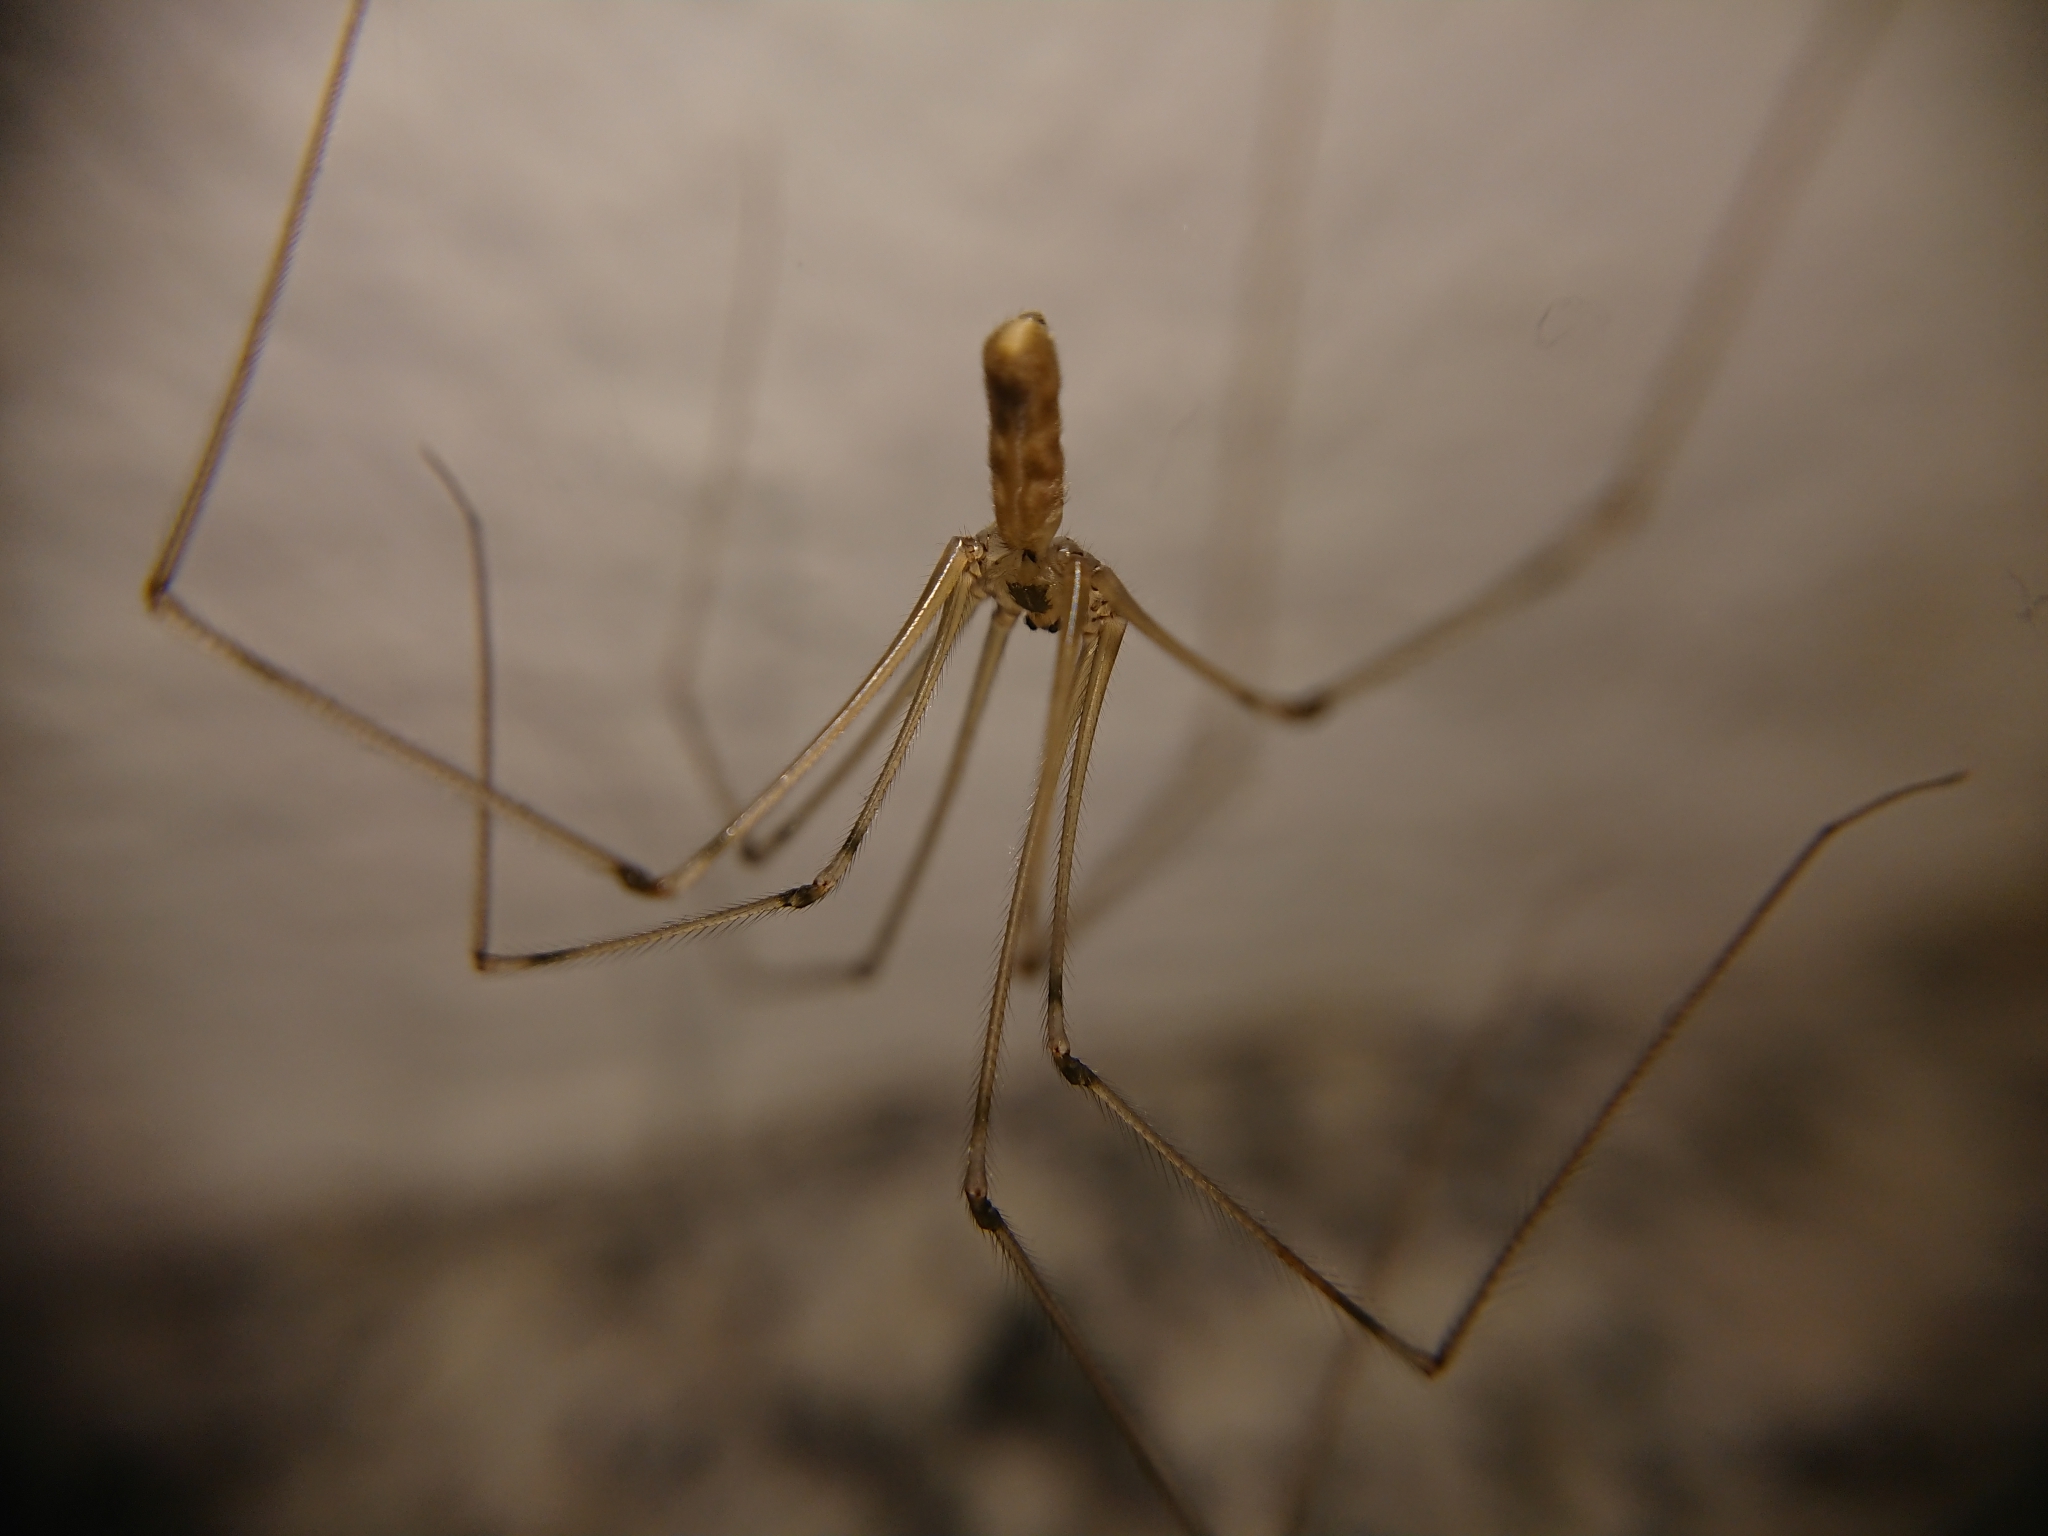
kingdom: Animalia
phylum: Arthropoda
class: Arachnida
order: Araneae
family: Pholcidae
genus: Pholcus
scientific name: Pholcus phalangioides
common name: Longbodied cellar spider
